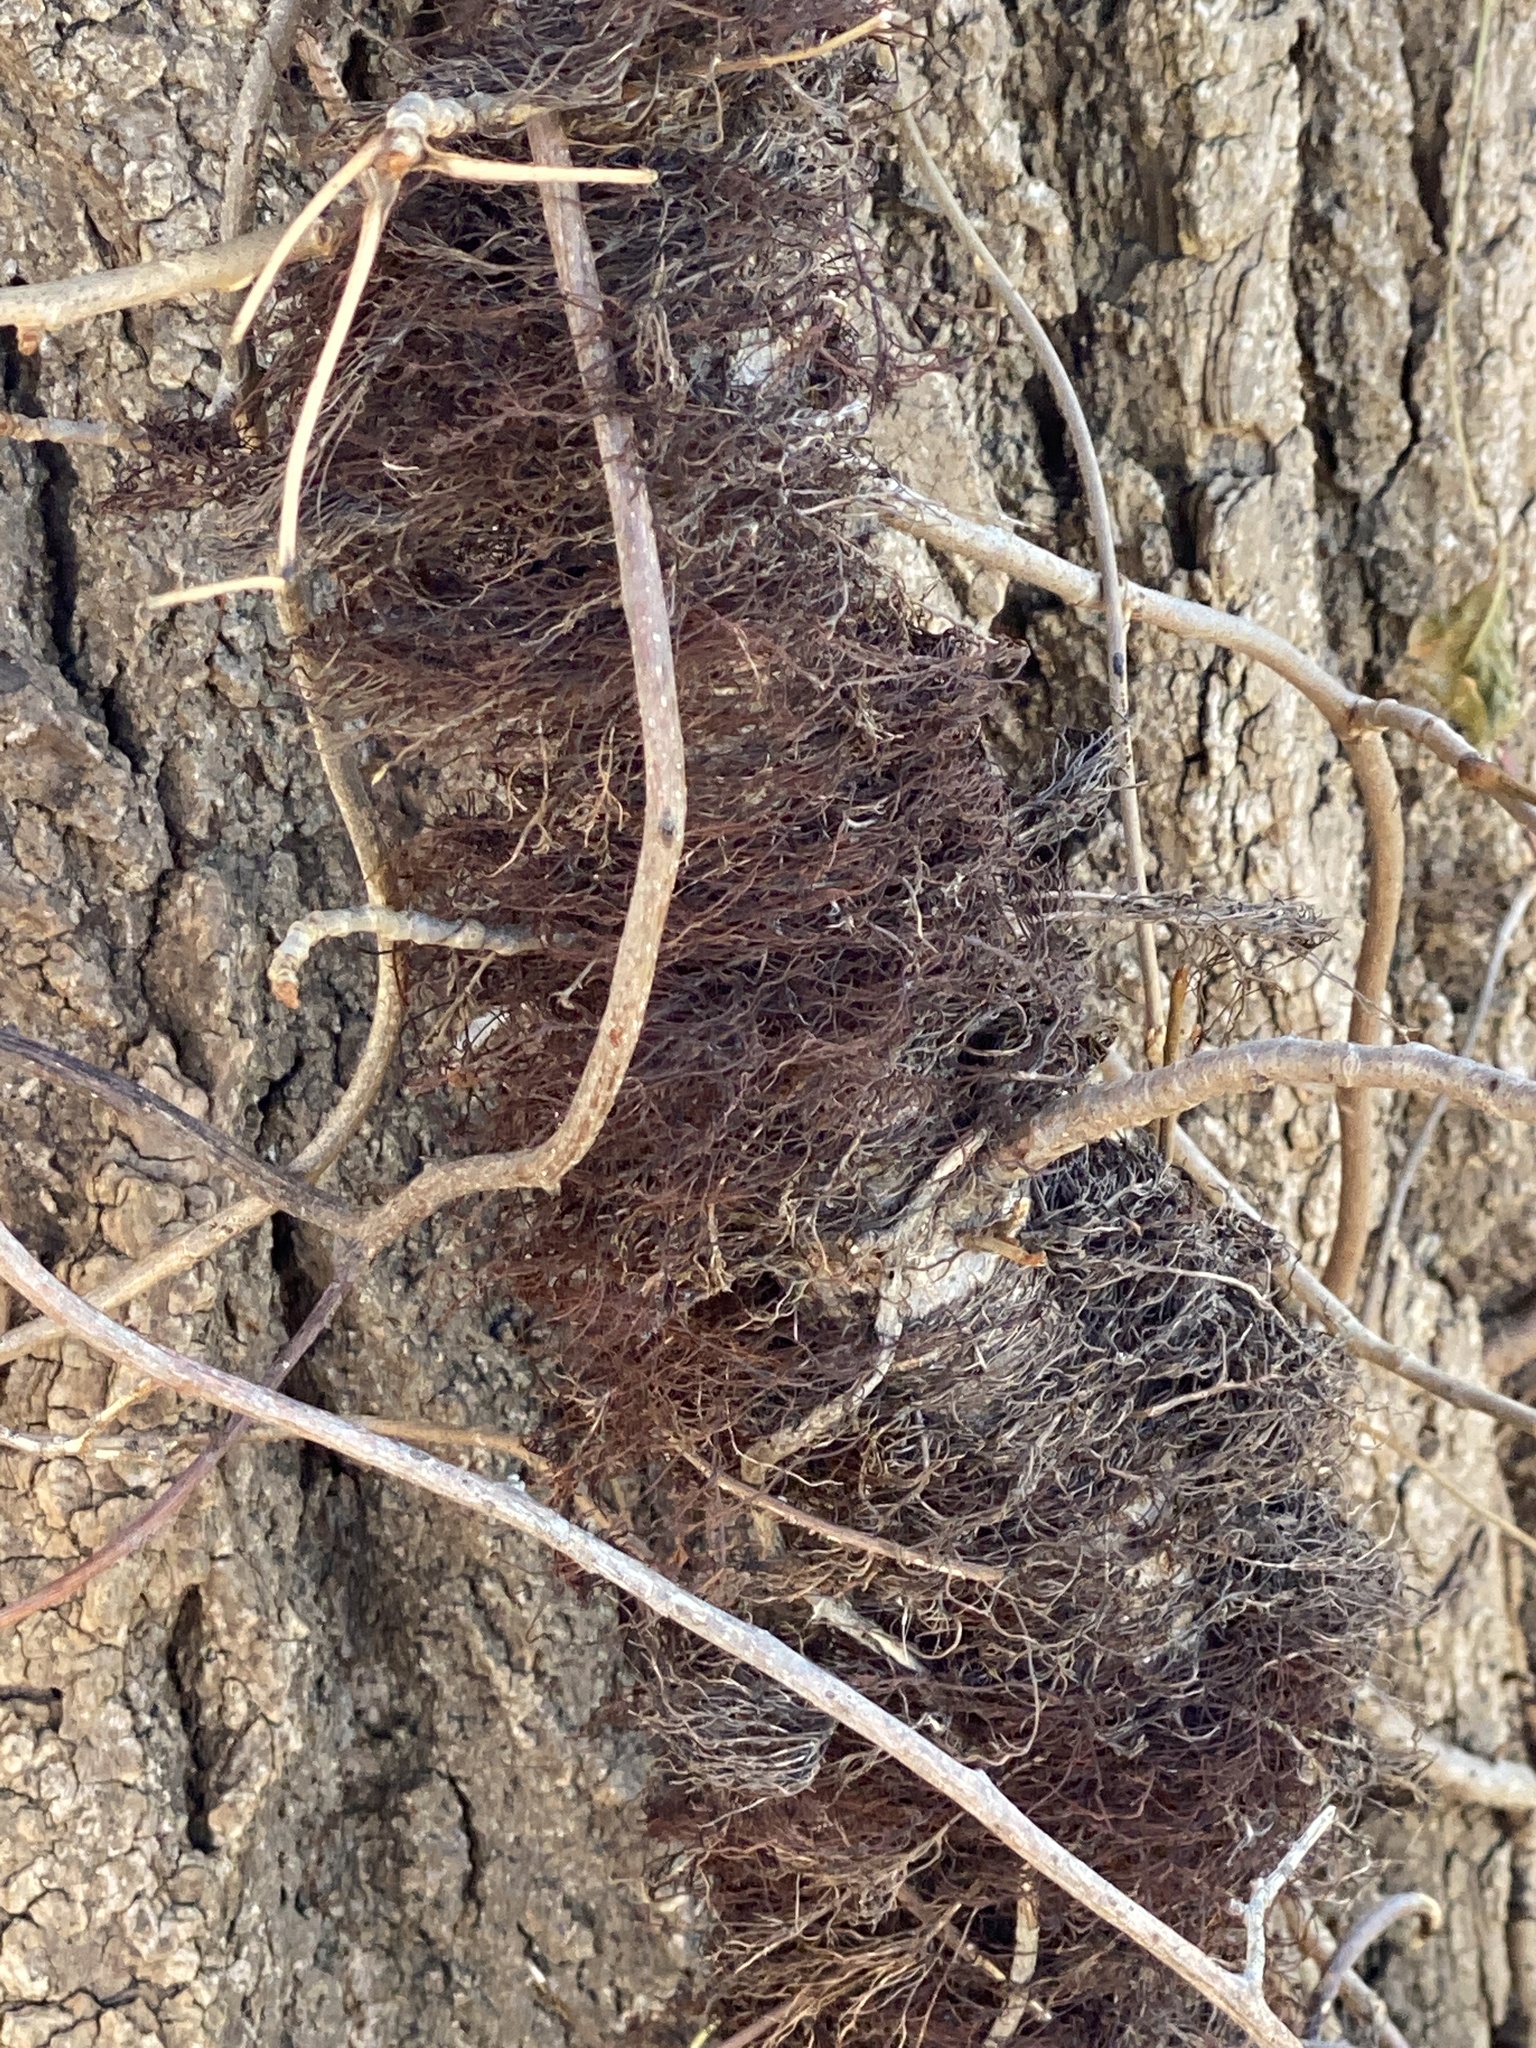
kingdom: Plantae
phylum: Tracheophyta
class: Magnoliopsida
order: Sapindales
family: Anacardiaceae
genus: Toxicodendron
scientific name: Toxicodendron radicans
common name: Poison ivy
